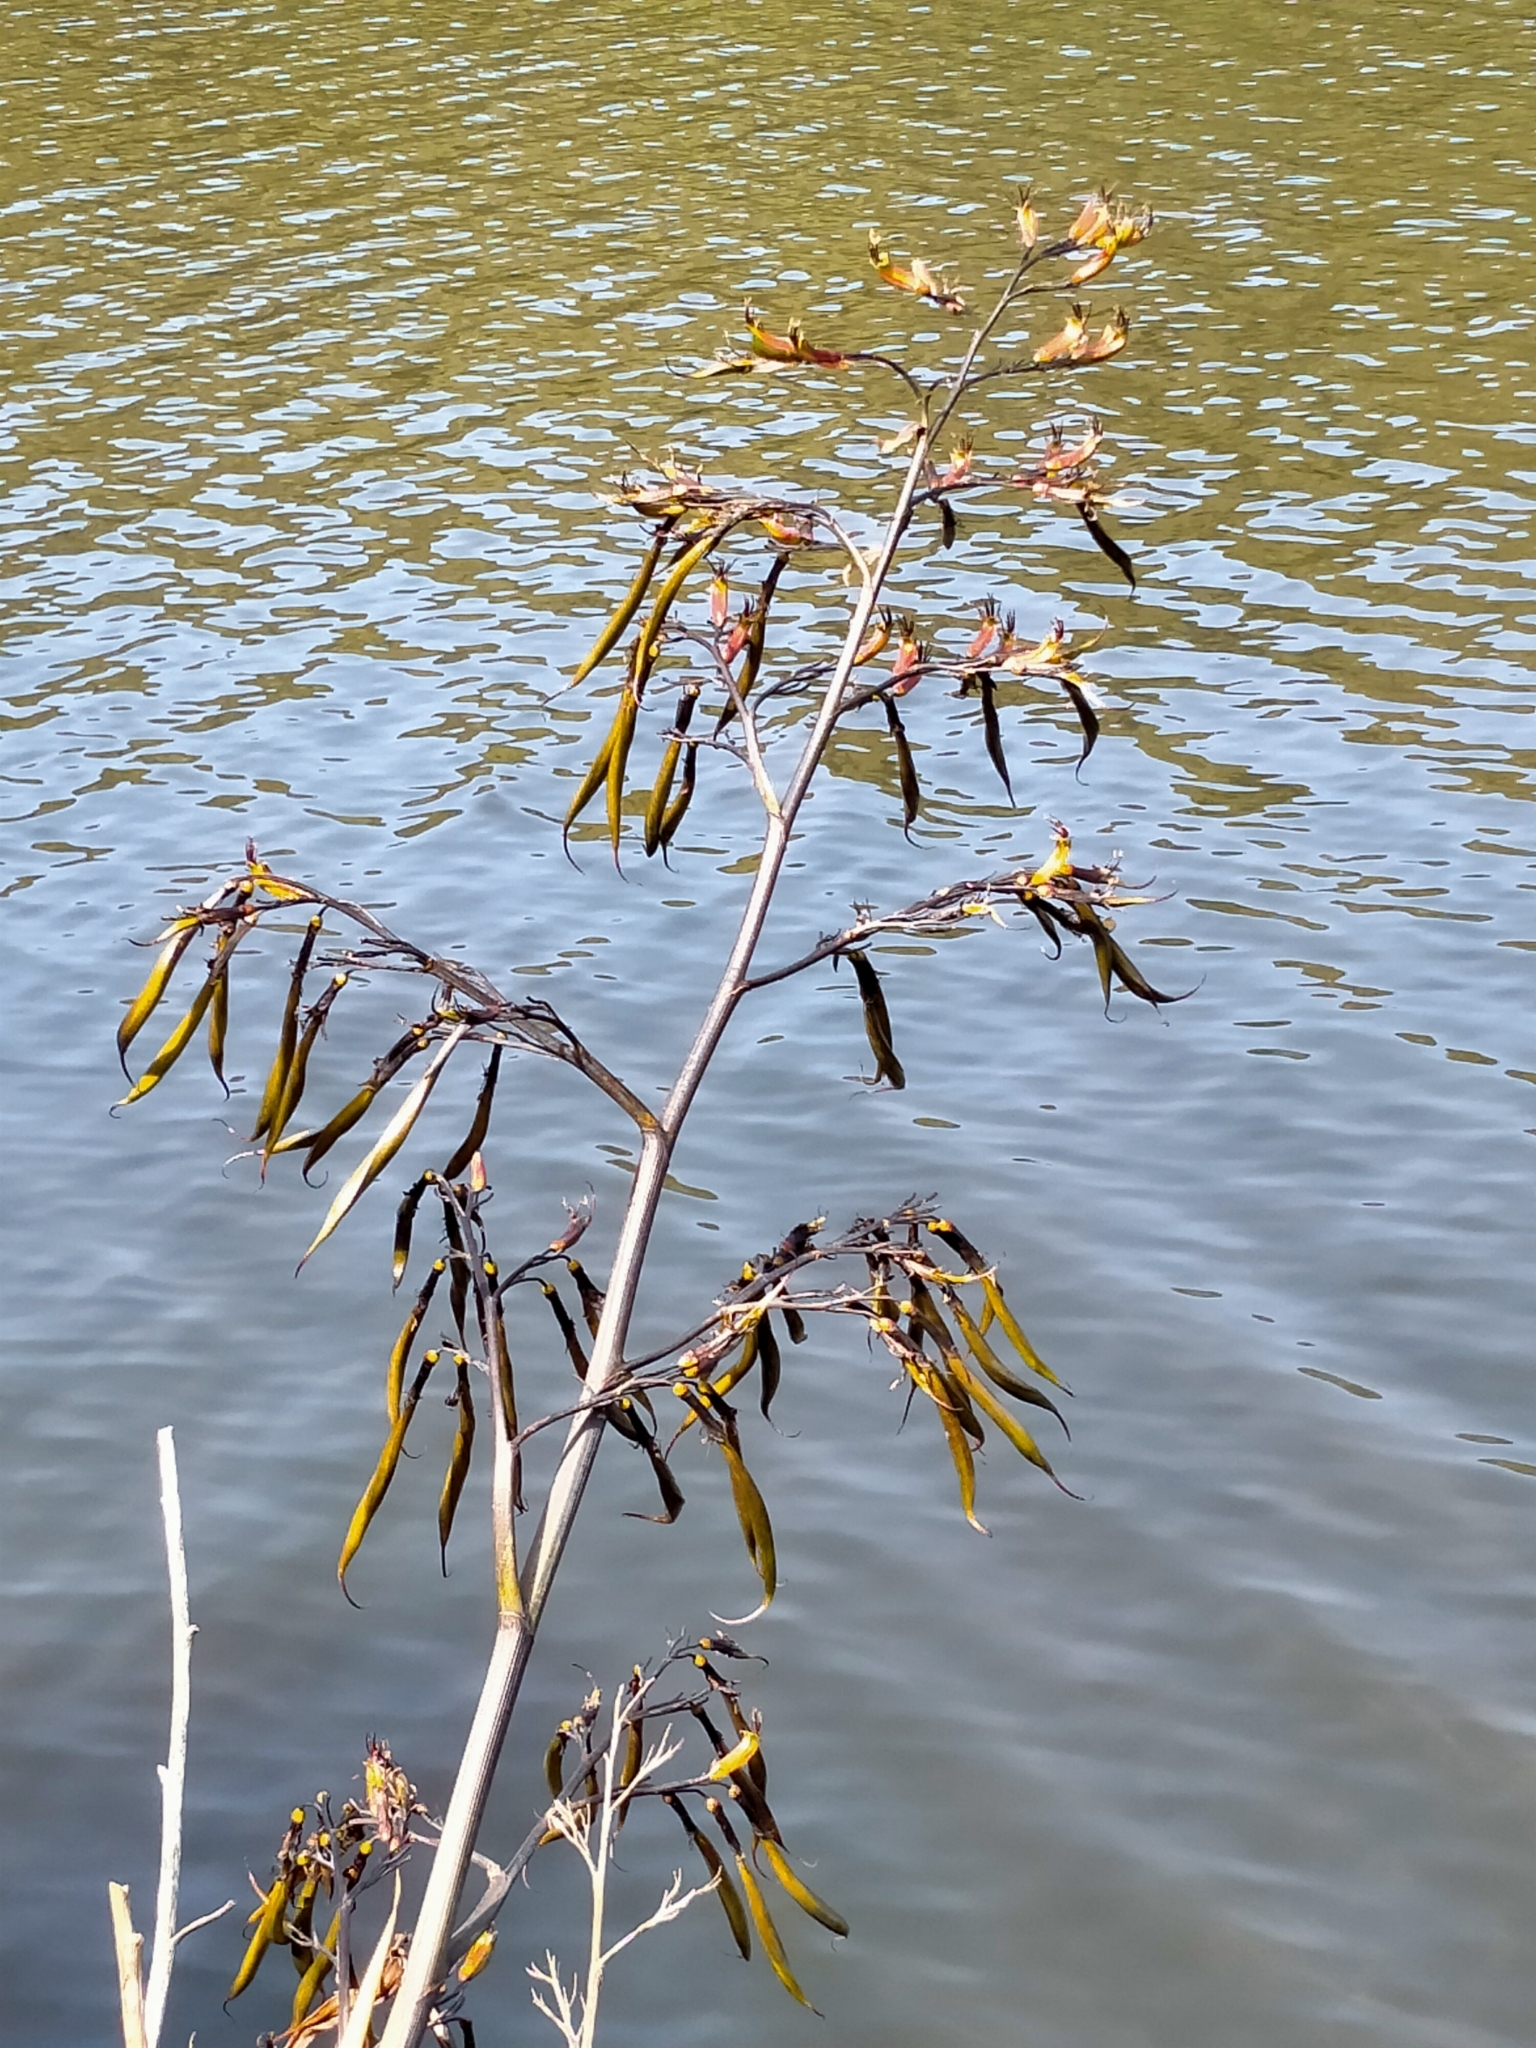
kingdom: Plantae
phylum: Tracheophyta
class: Liliopsida
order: Asparagales
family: Asphodelaceae
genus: Phormium
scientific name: Phormium colensoi
